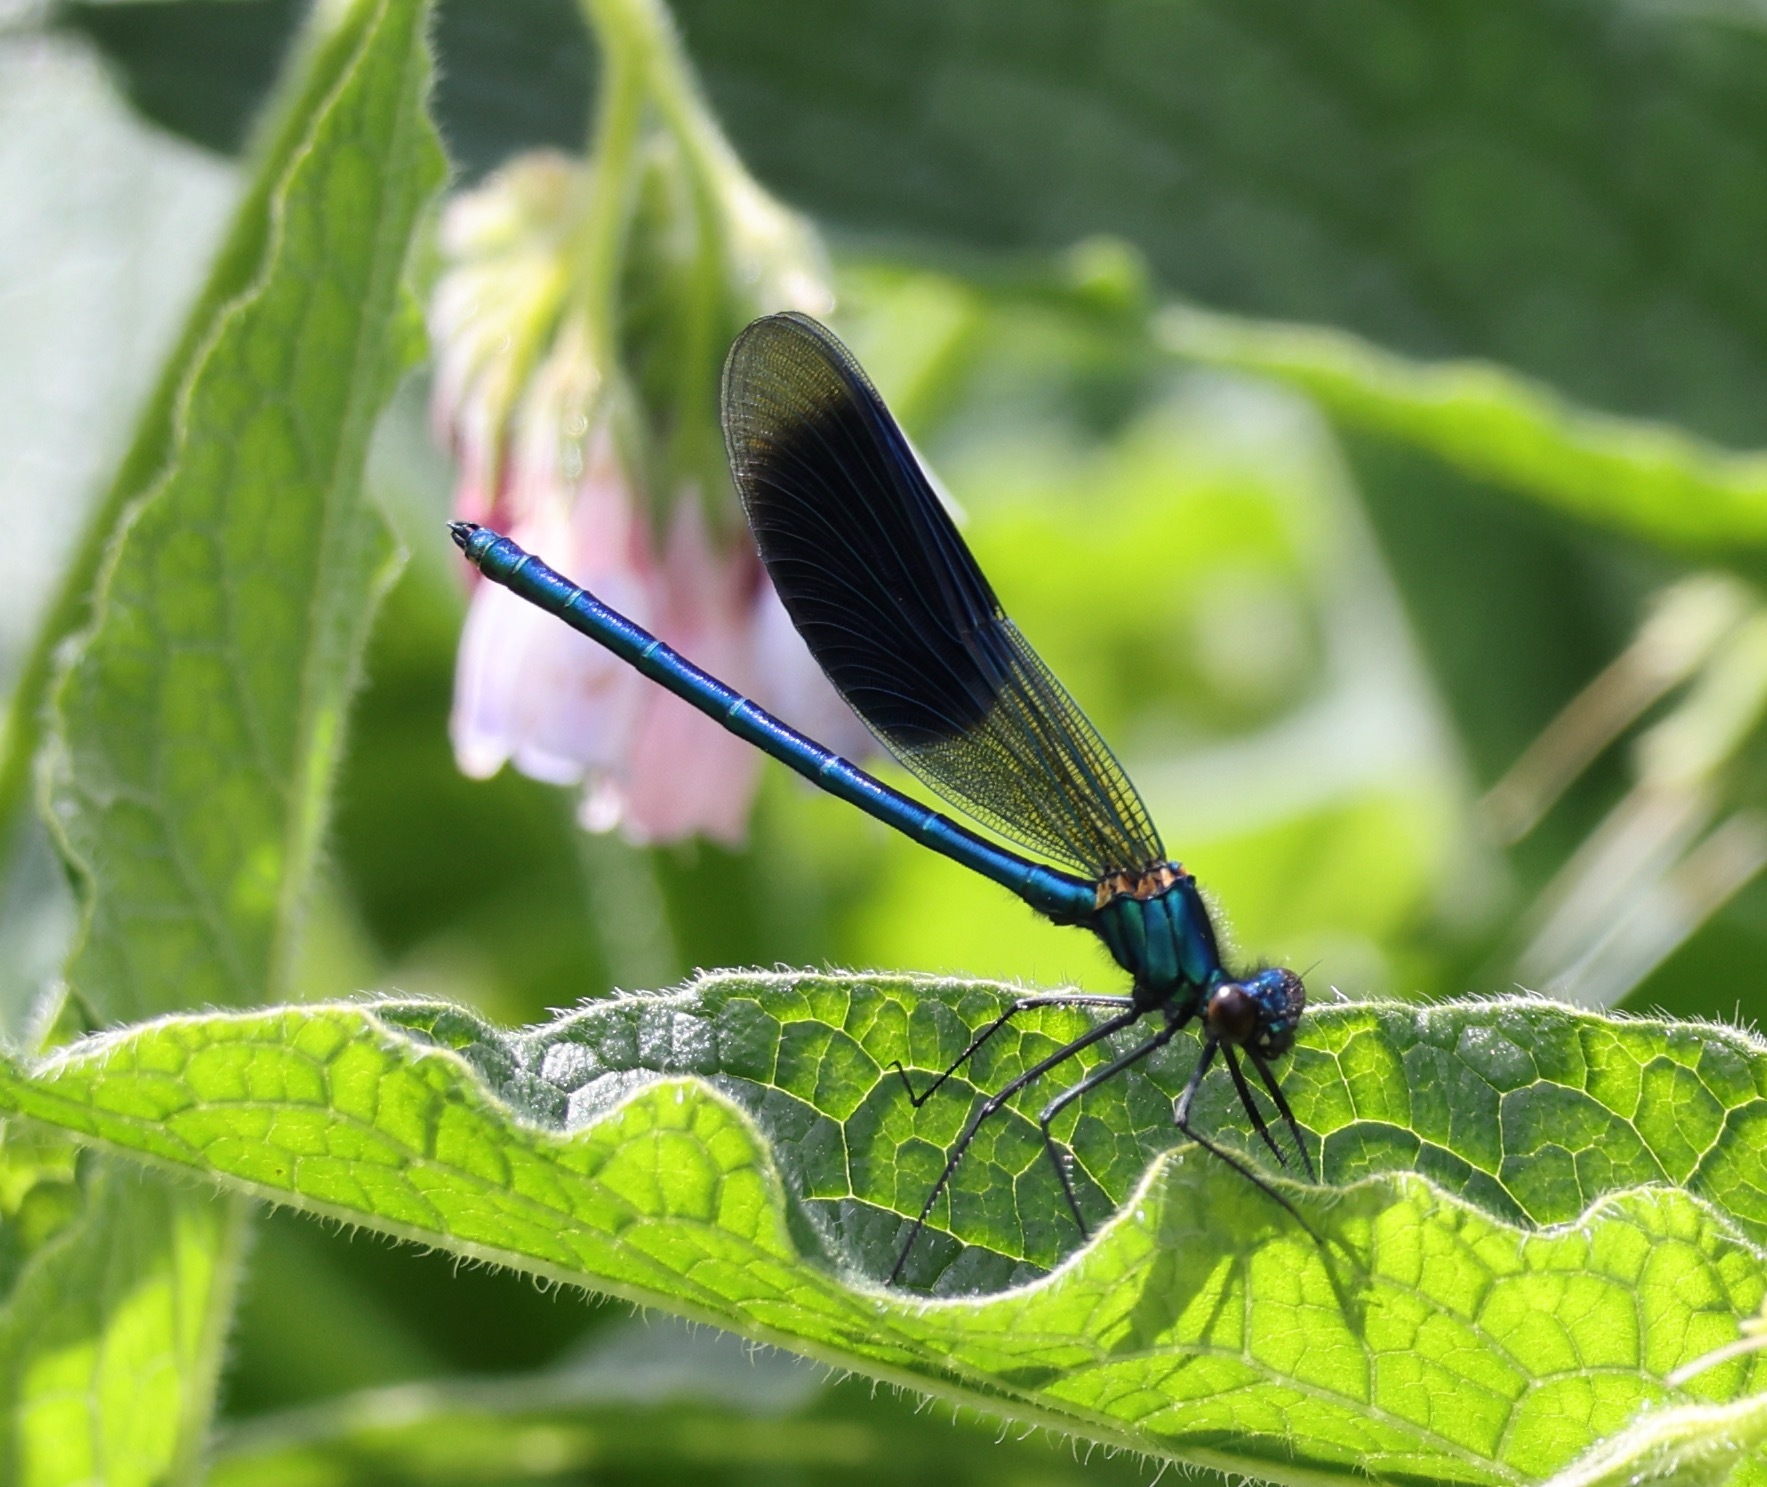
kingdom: Animalia
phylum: Arthropoda
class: Insecta
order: Odonata
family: Calopterygidae
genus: Calopteryx
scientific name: Calopteryx splendens
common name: Banded demoiselle
